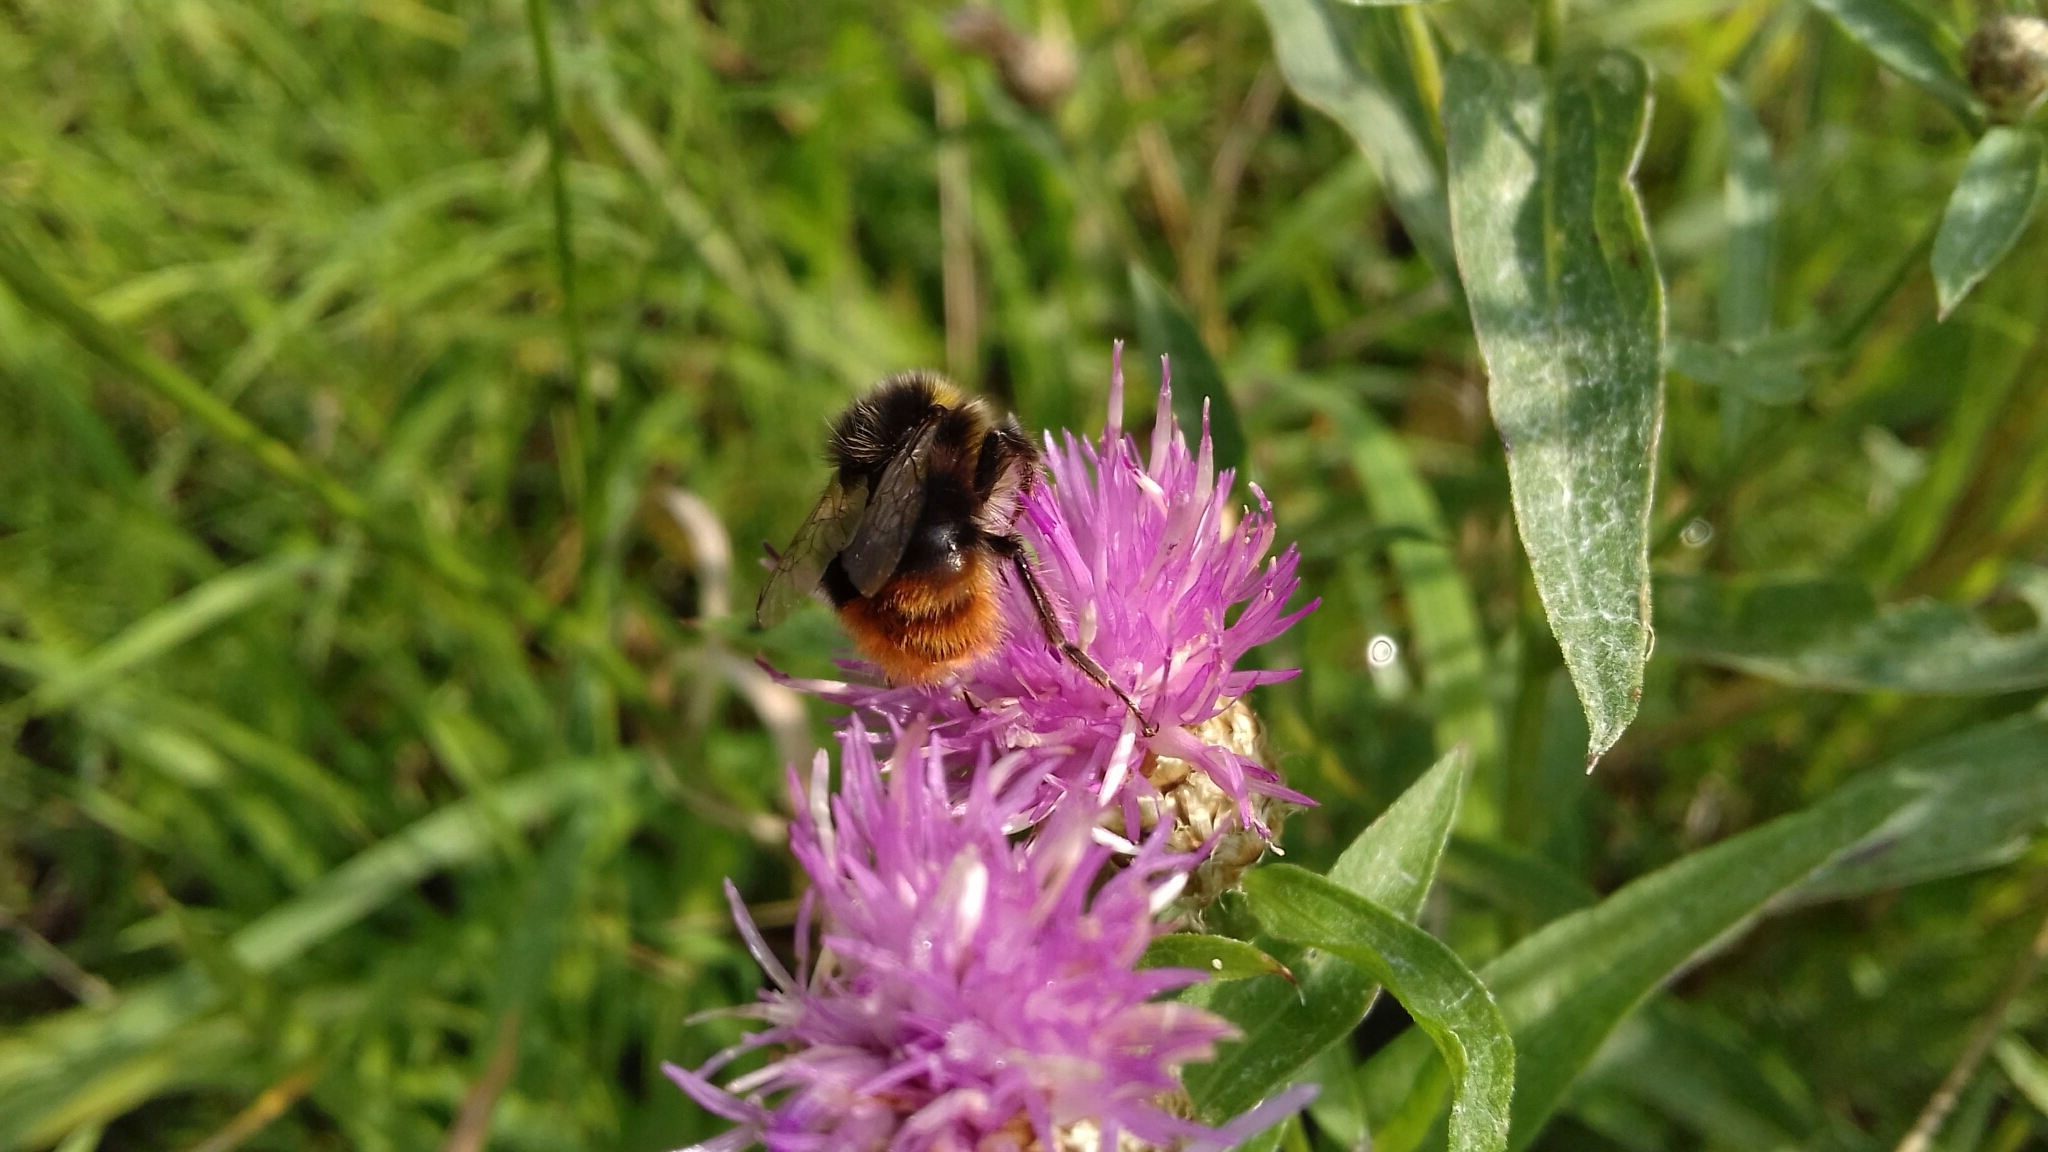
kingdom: Animalia
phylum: Arthropoda
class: Insecta
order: Hymenoptera
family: Apidae
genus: Bombus
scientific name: Bombus lapidarius
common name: Large red-tailed humble-bee
